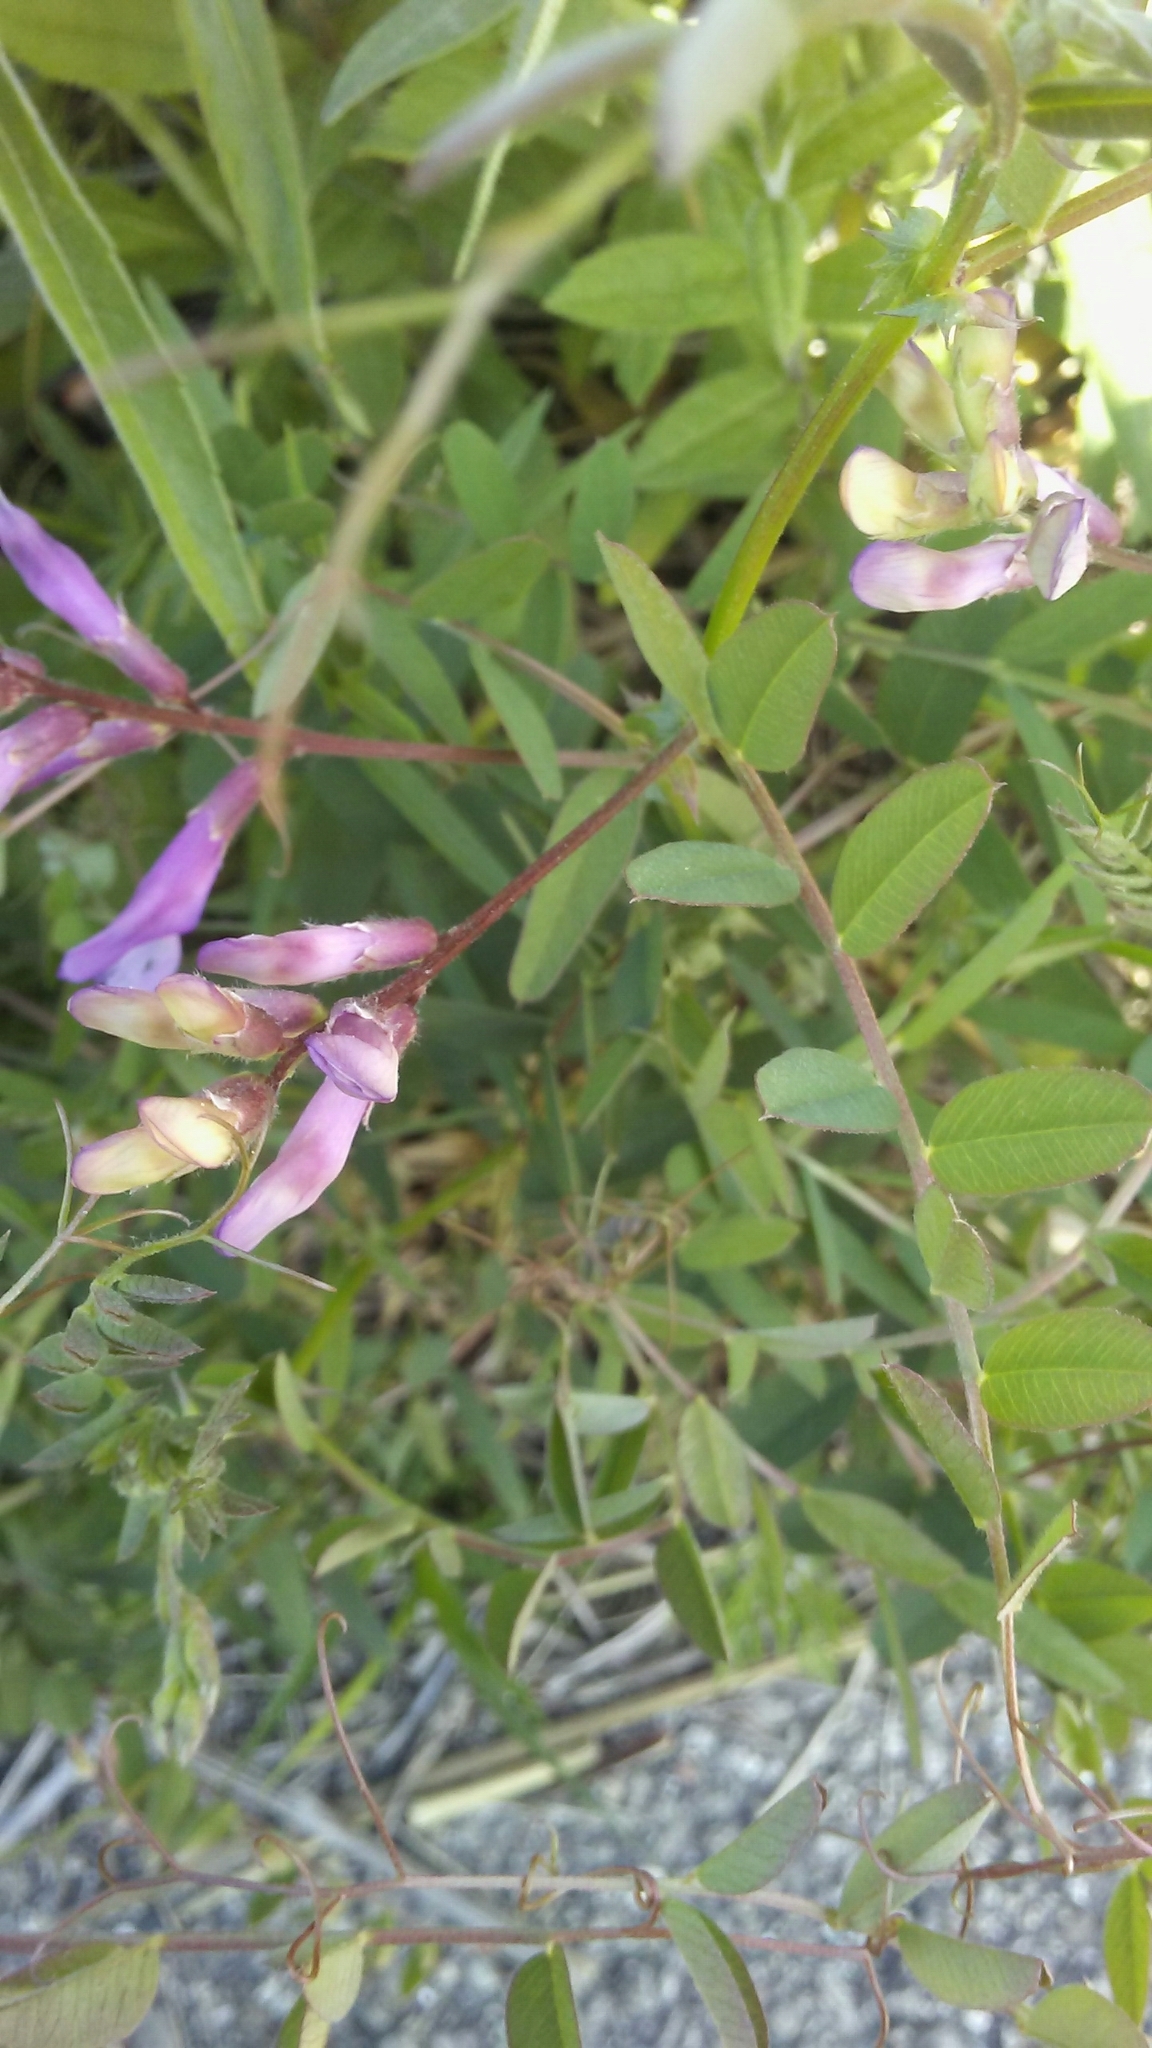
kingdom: Plantae
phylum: Tracheophyta
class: Magnoliopsida
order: Fabales
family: Fabaceae
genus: Vicia
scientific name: Vicia americana
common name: American vetch
